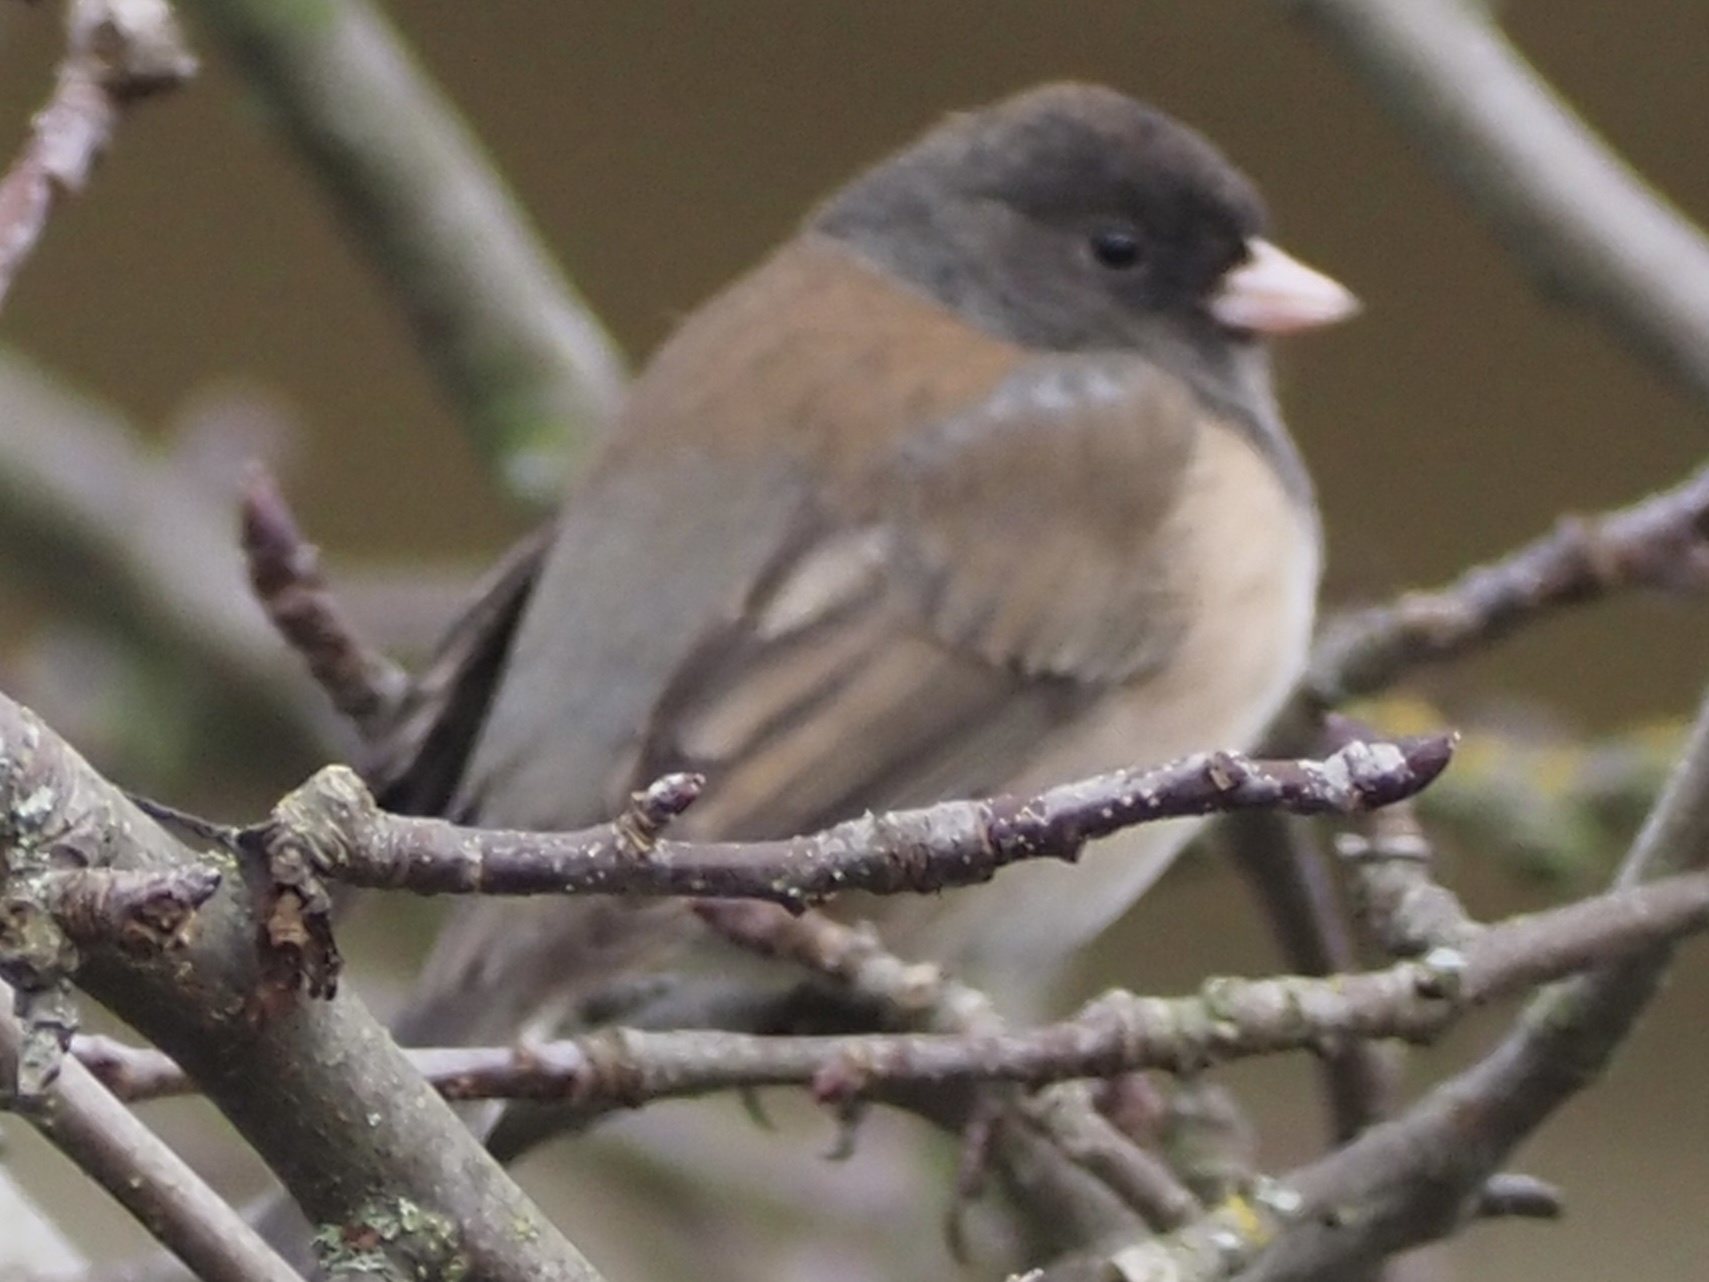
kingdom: Animalia
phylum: Chordata
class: Aves
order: Passeriformes
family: Passerellidae
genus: Junco
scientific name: Junco hyemalis
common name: Dark-eyed junco
